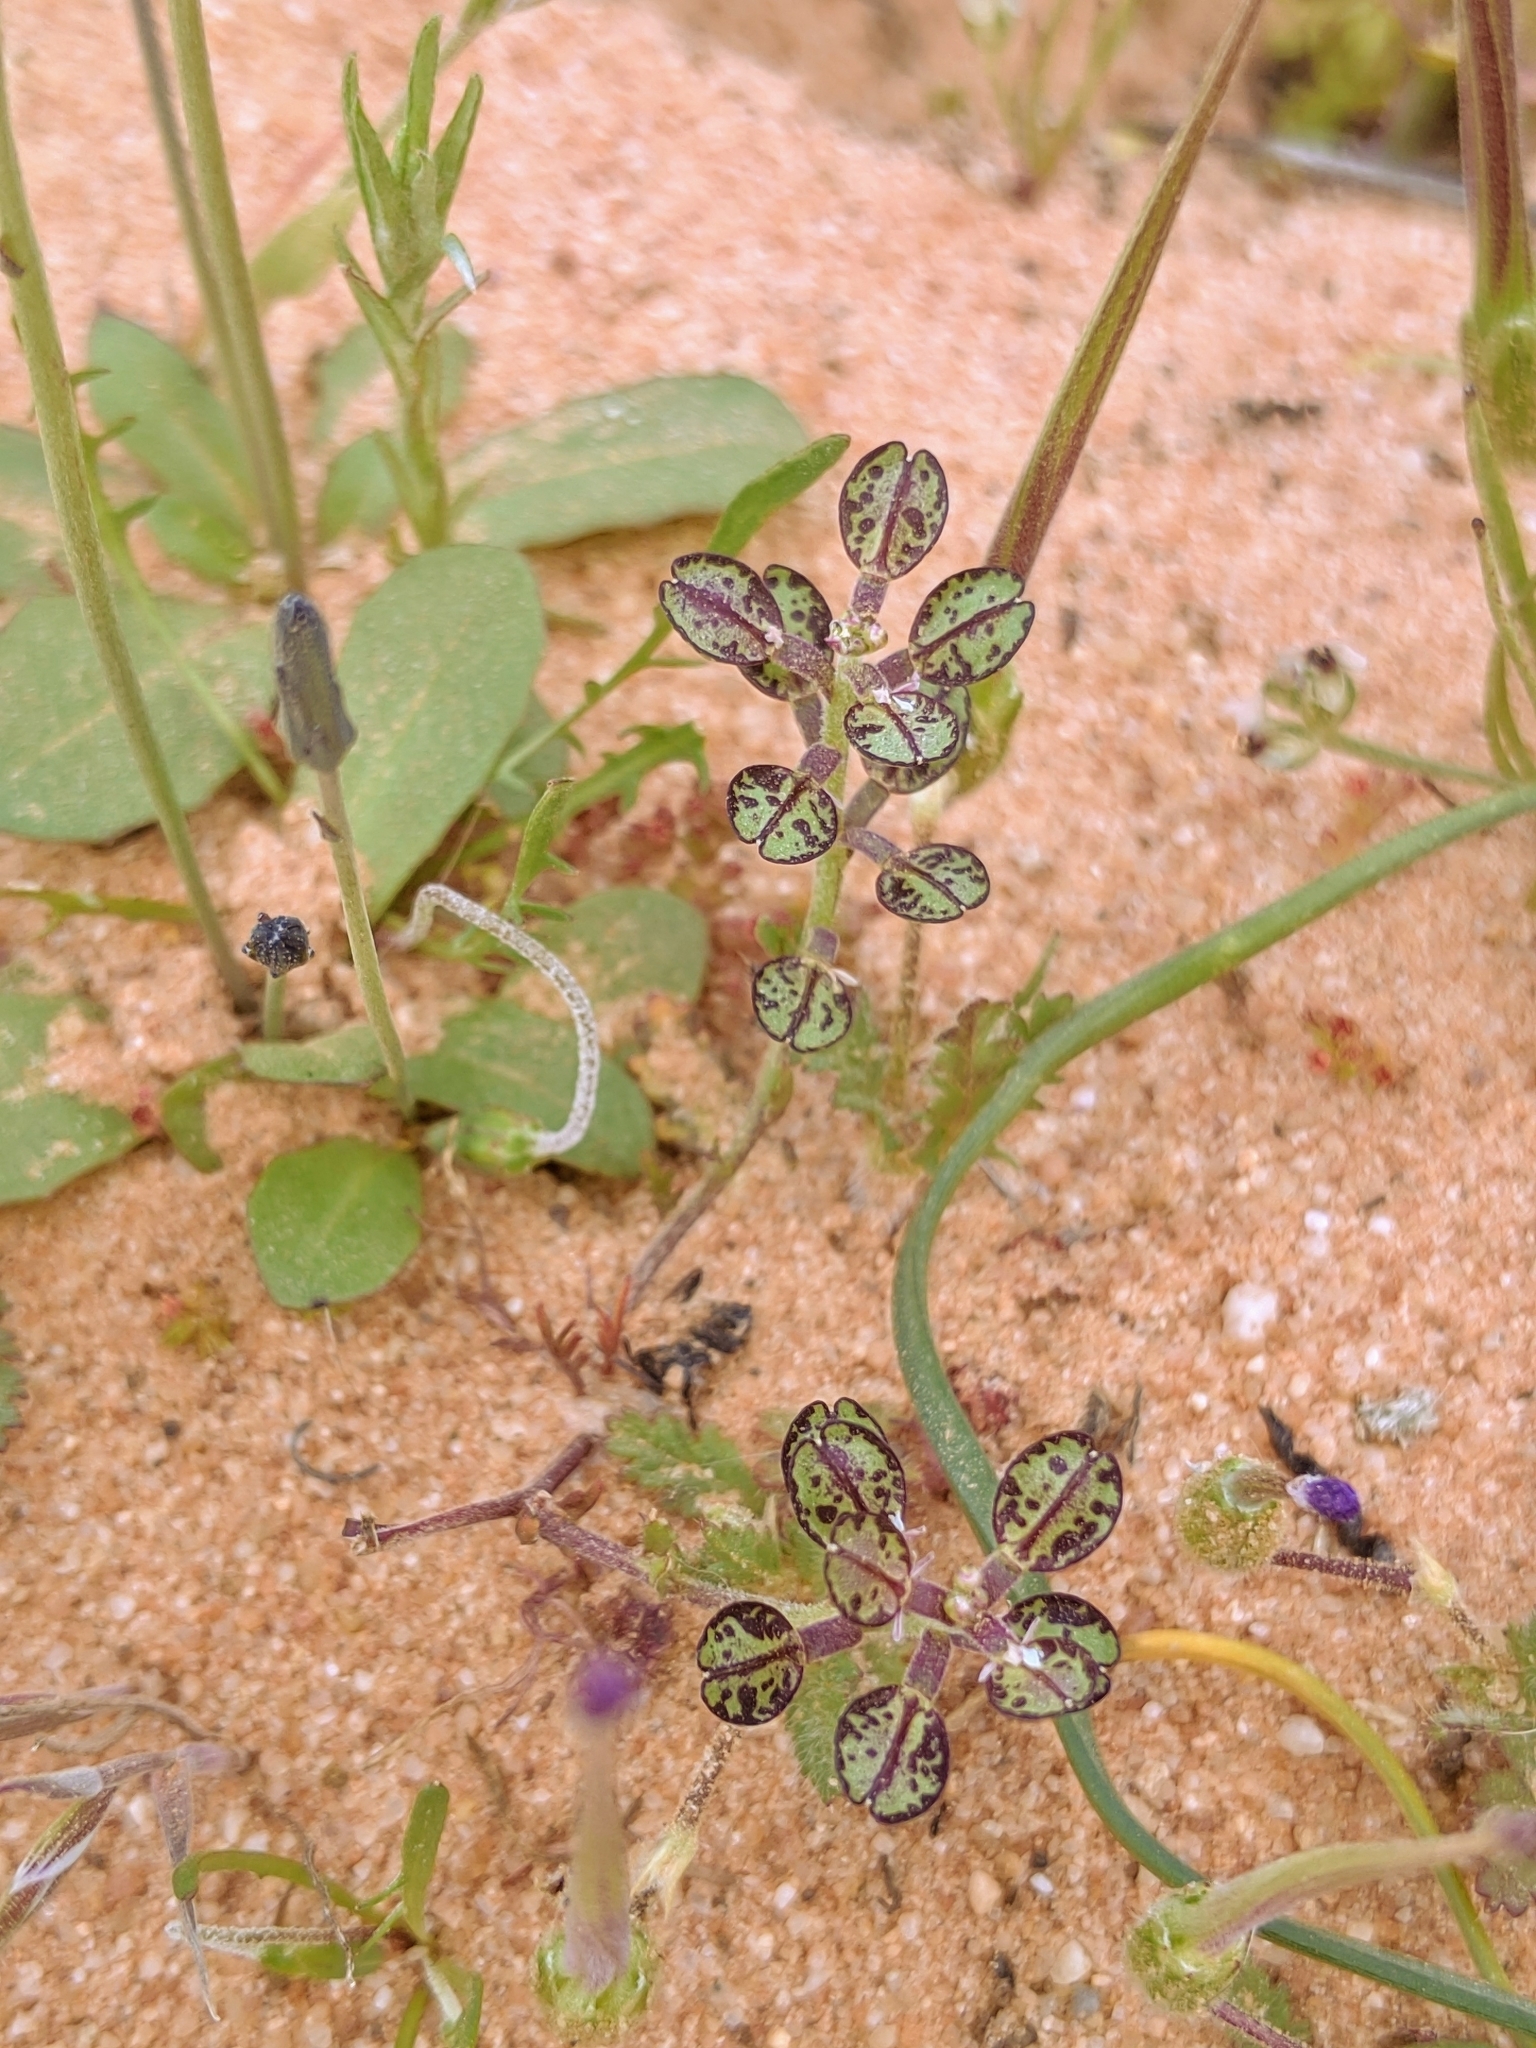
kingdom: Plantae
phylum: Tracheophyta
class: Magnoliopsida
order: Brassicales
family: Brassicaceae
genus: Lepidium
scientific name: Lepidium nitidum
